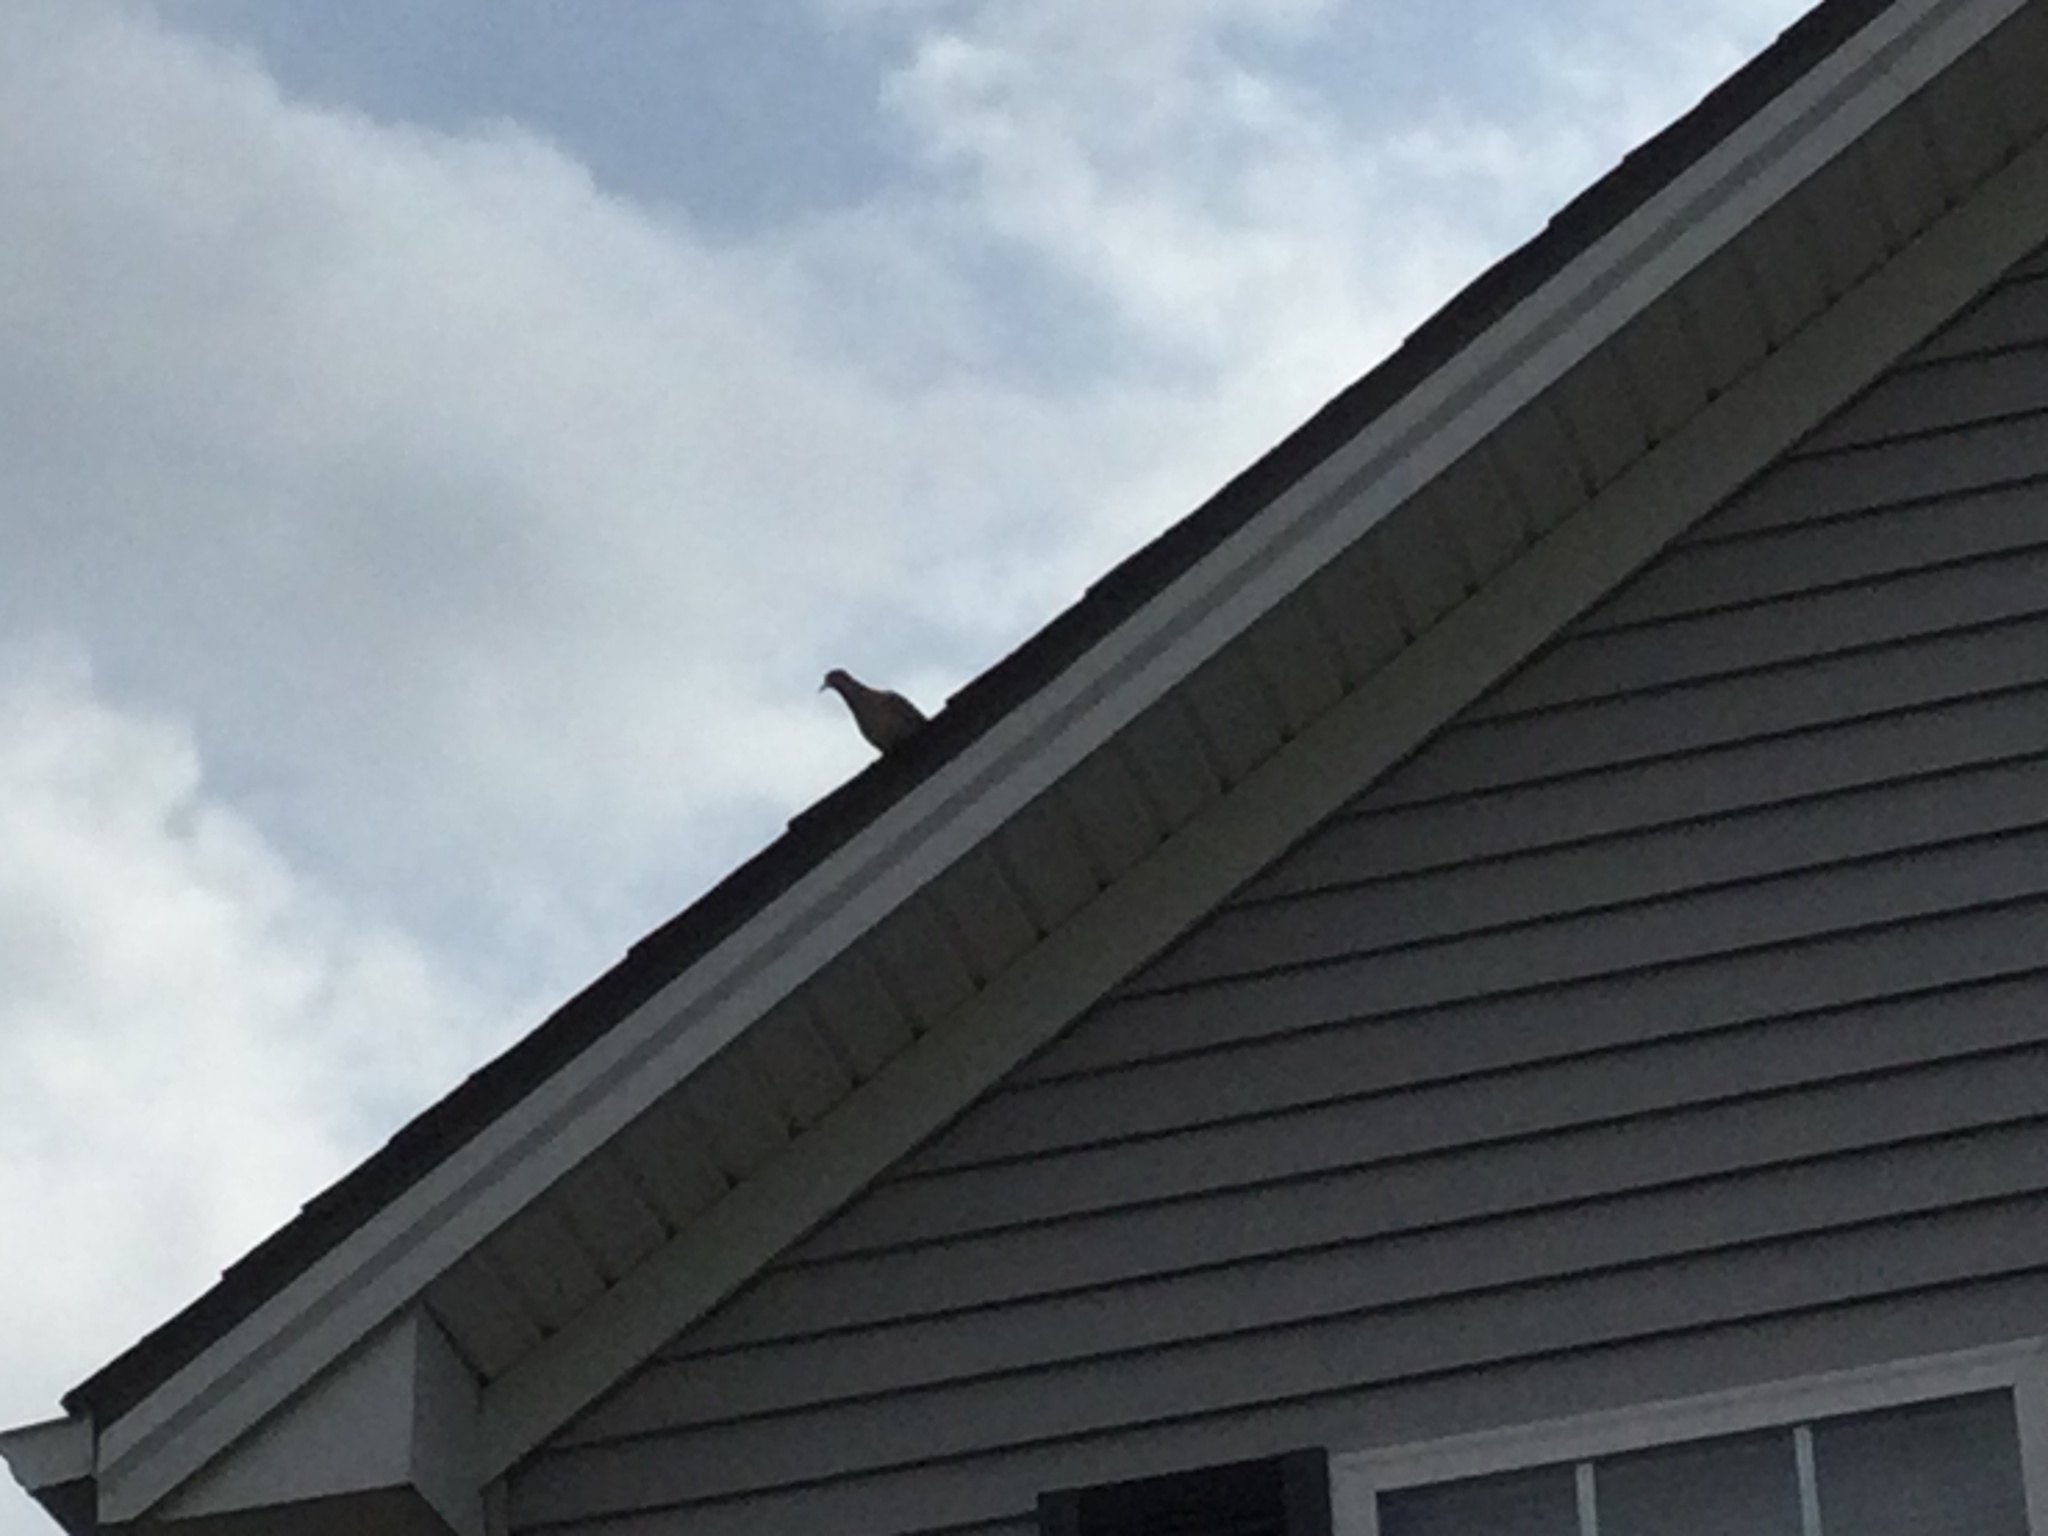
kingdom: Animalia
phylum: Chordata
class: Aves
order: Columbiformes
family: Columbidae
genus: Zenaida
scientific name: Zenaida macroura
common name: Mourning dove
